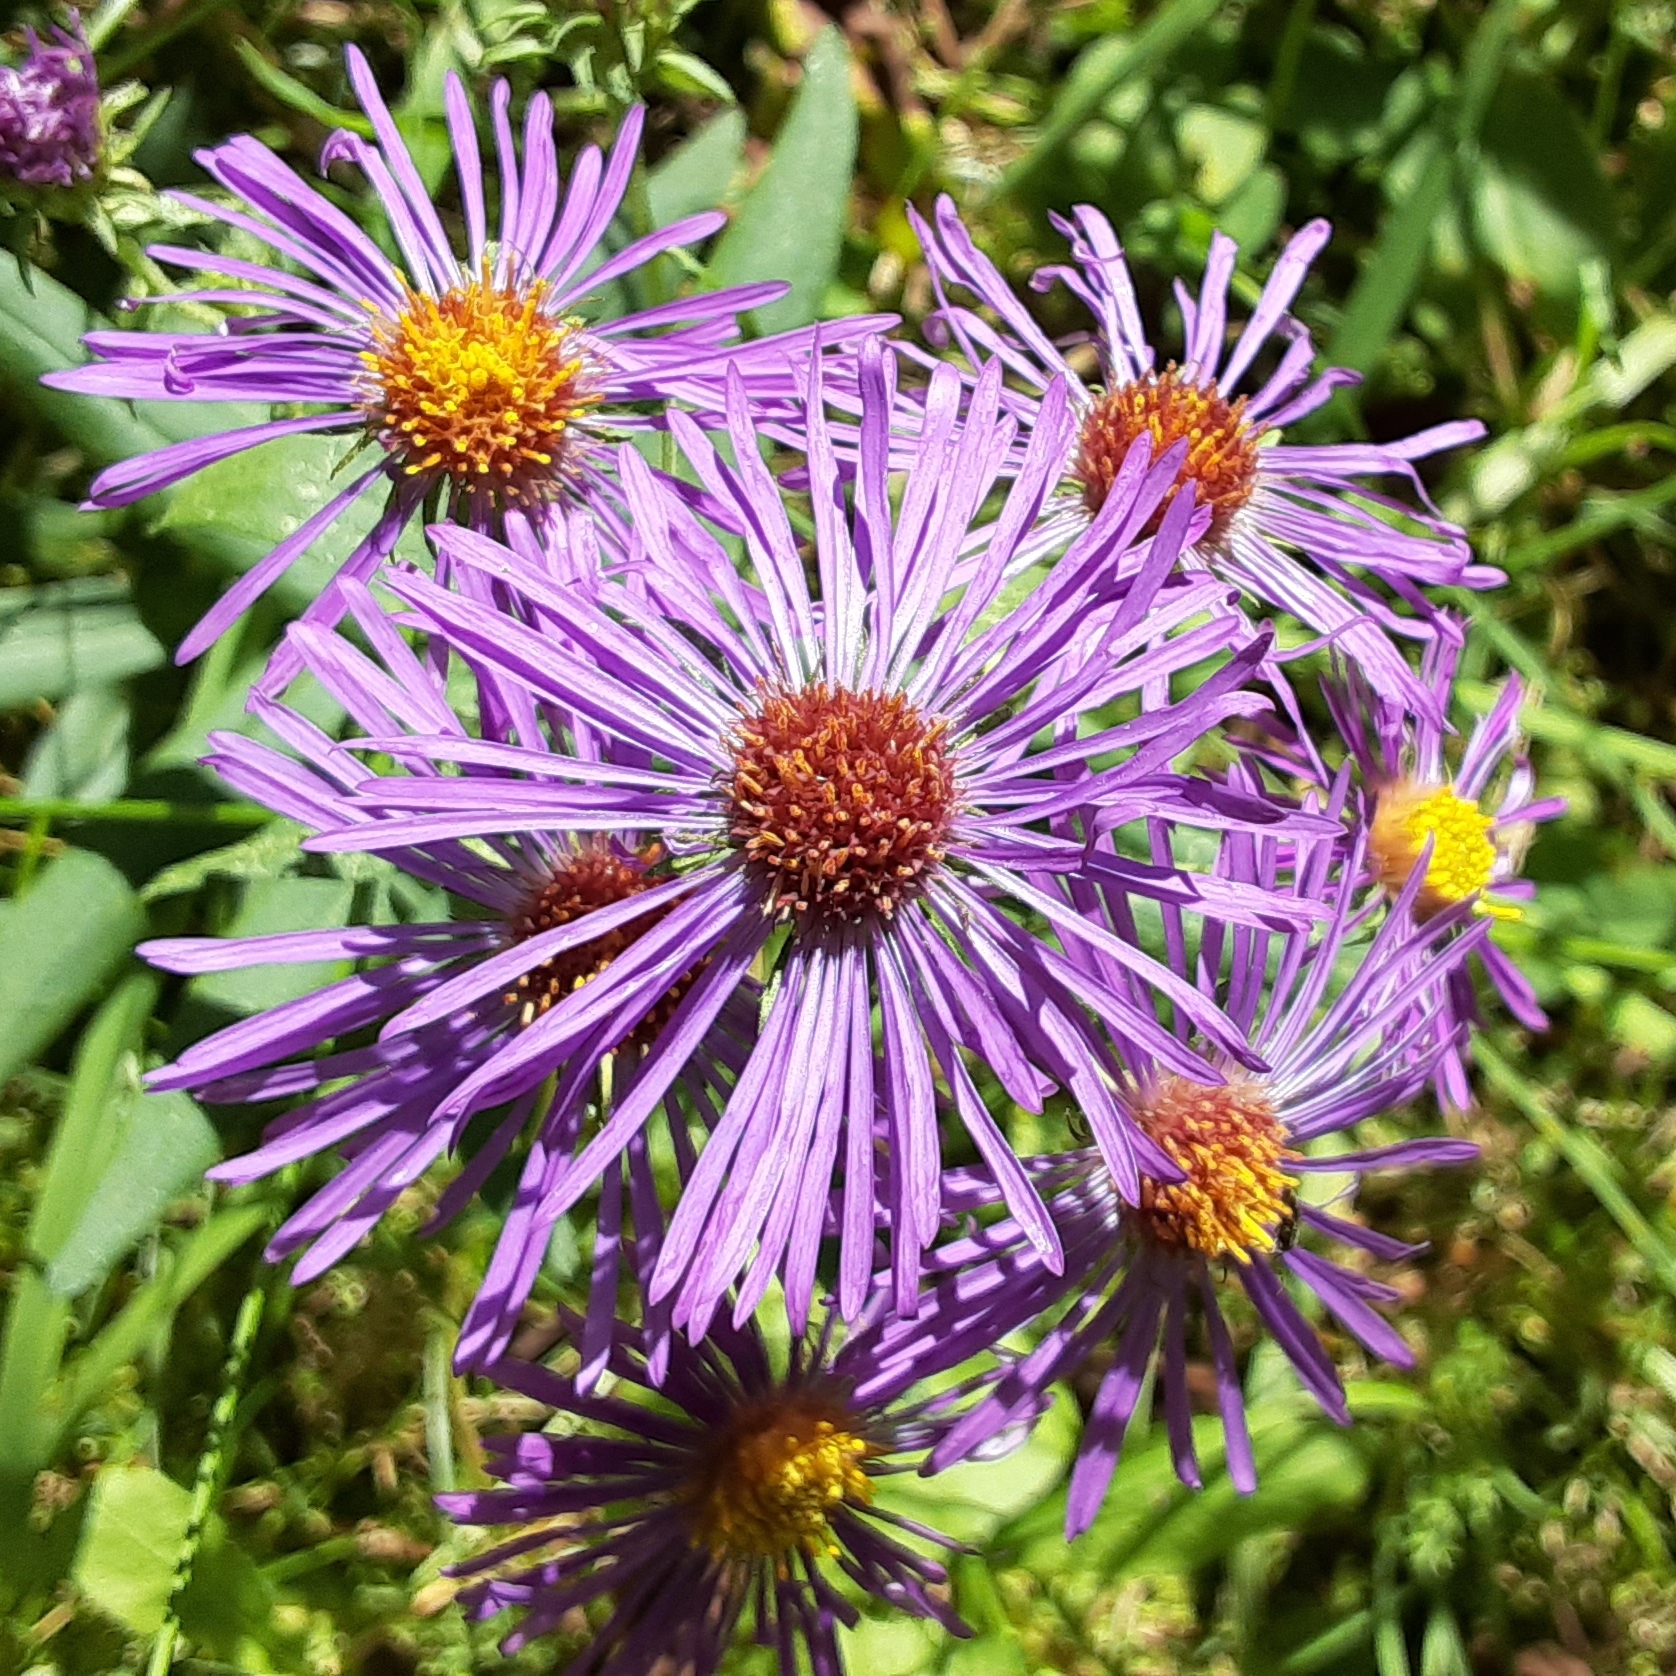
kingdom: Plantae
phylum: Tracheophyta
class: Magnoliopsida
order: Asterales
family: Asteraceae
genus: Symphyotrichum
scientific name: Symphyotrichum novae-angliae
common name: Michaelmas daisy
